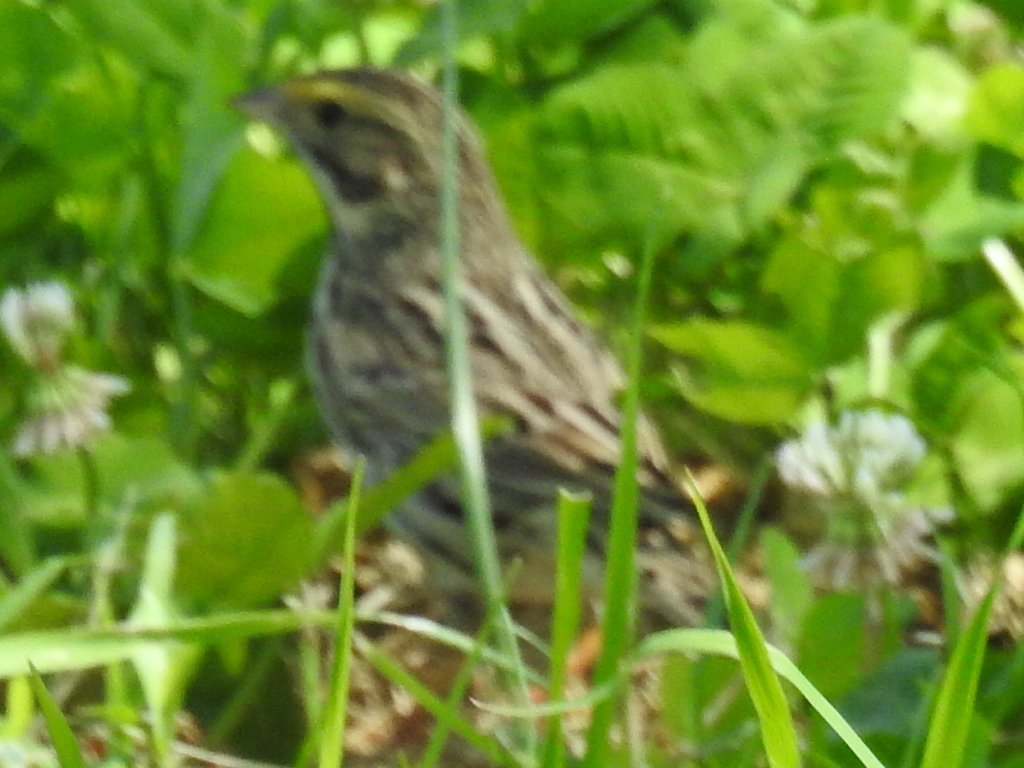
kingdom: Animalia
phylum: Chordata
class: Aves
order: Passeriformes
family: Passerellidae
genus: Passerculus
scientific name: Passerculus sandwichensis
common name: Savannah sparrow
